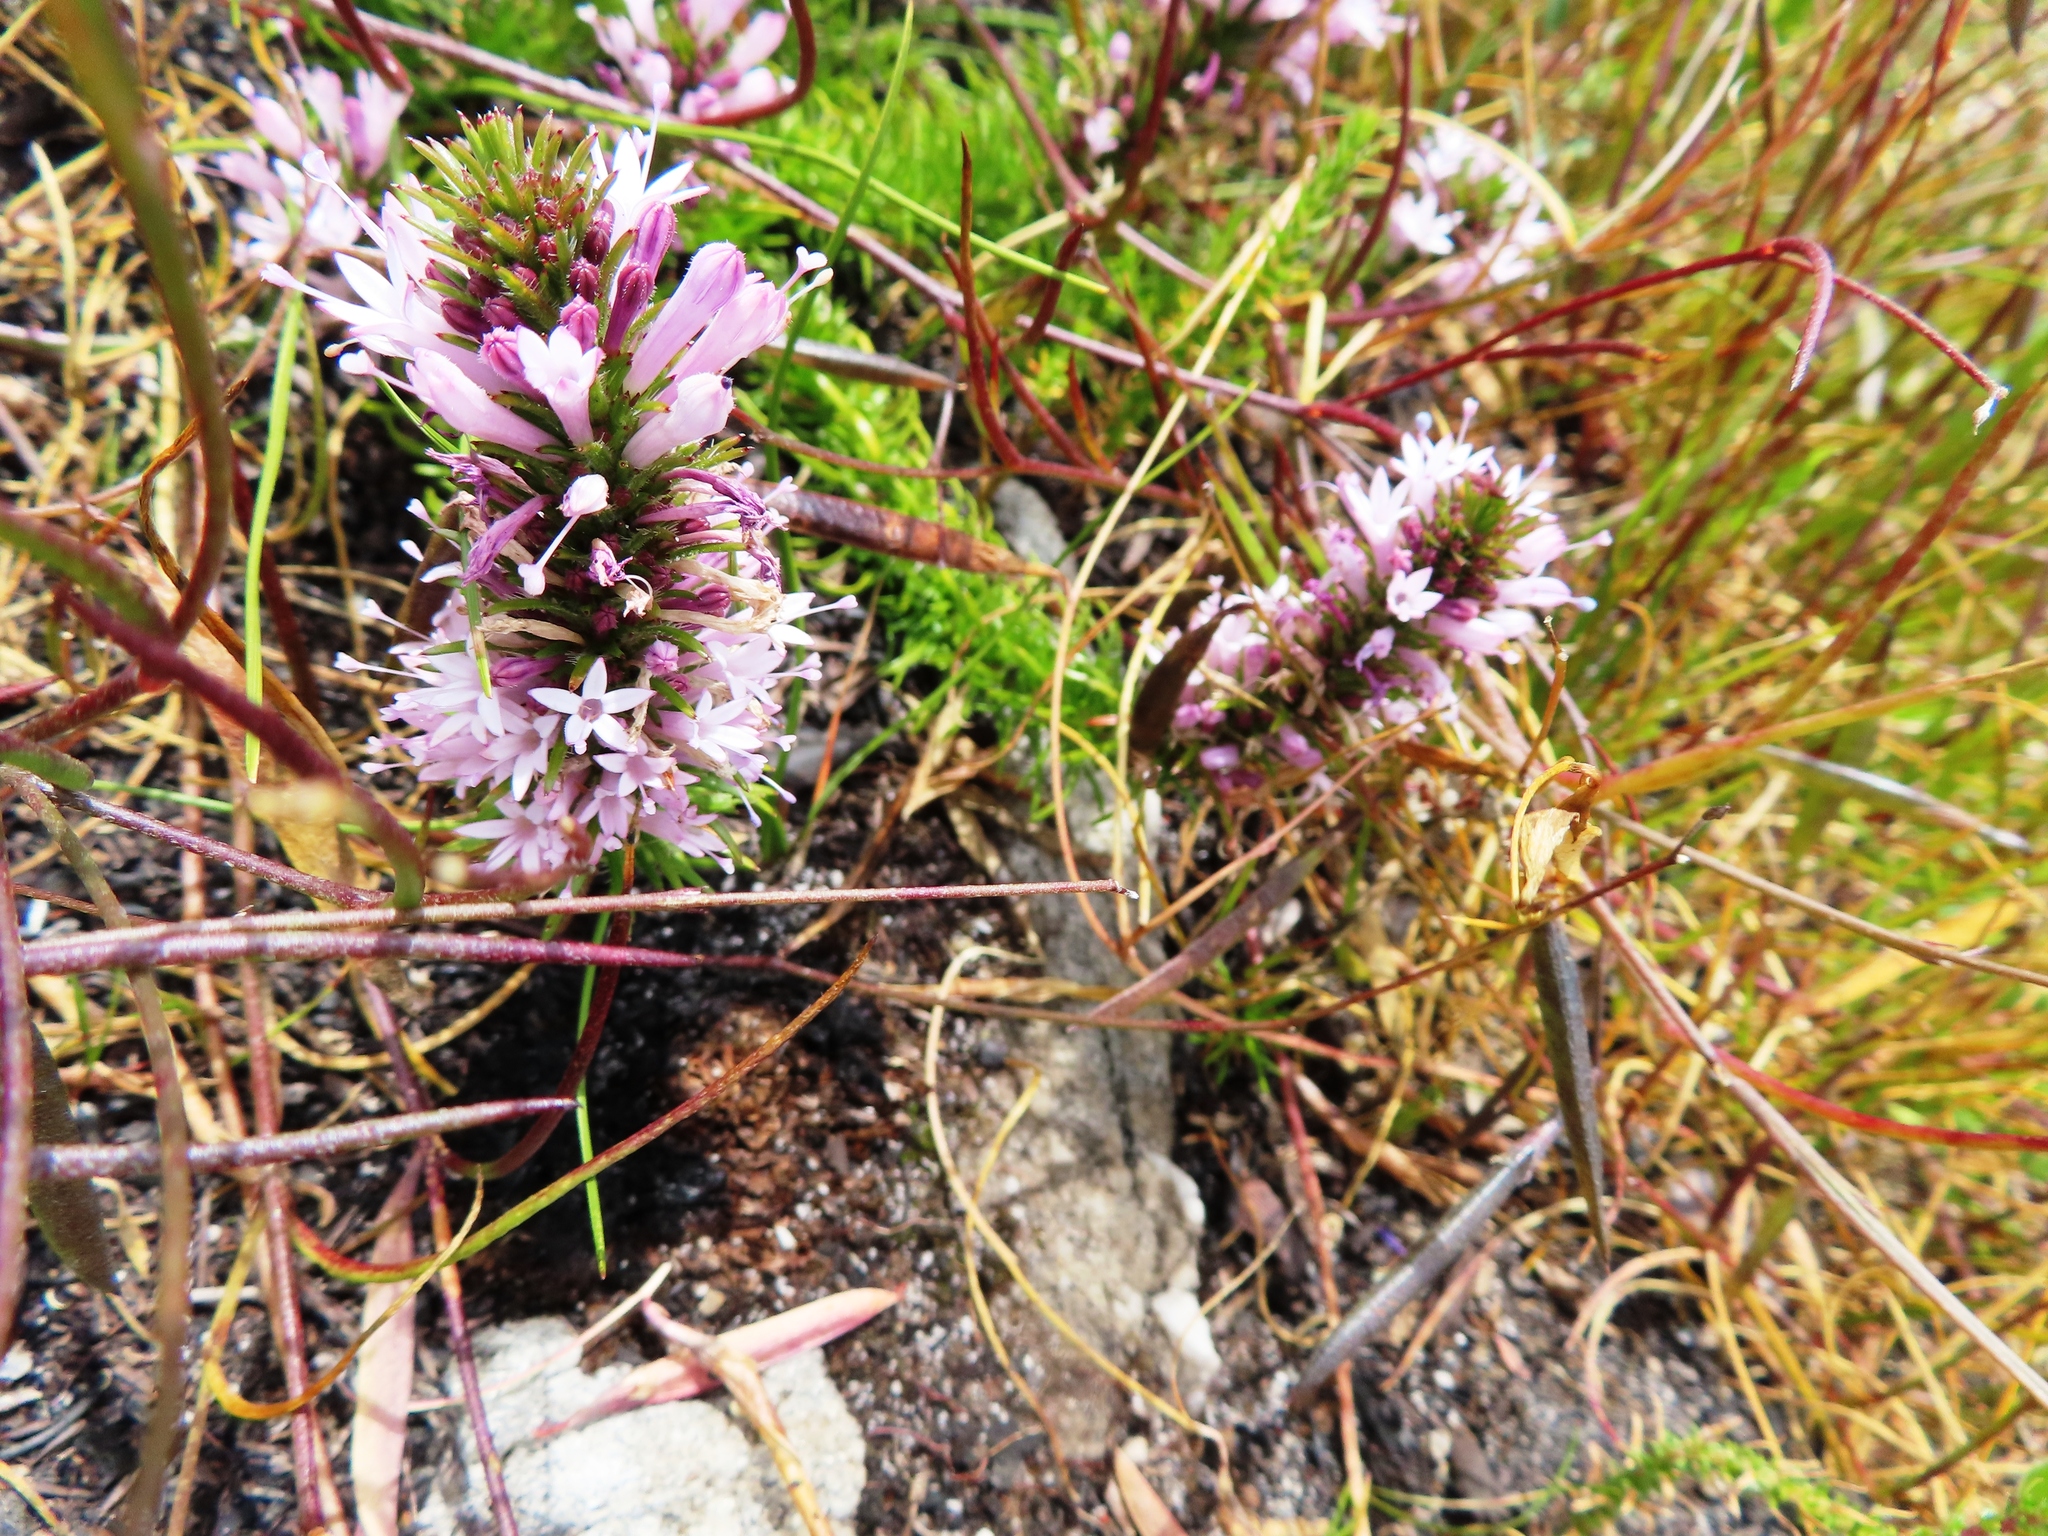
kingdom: Plantae
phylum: Tracheophyta
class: Magnoliopsida
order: Asterales
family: Campanulaceae
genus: Merciera
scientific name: Merciera azurea
